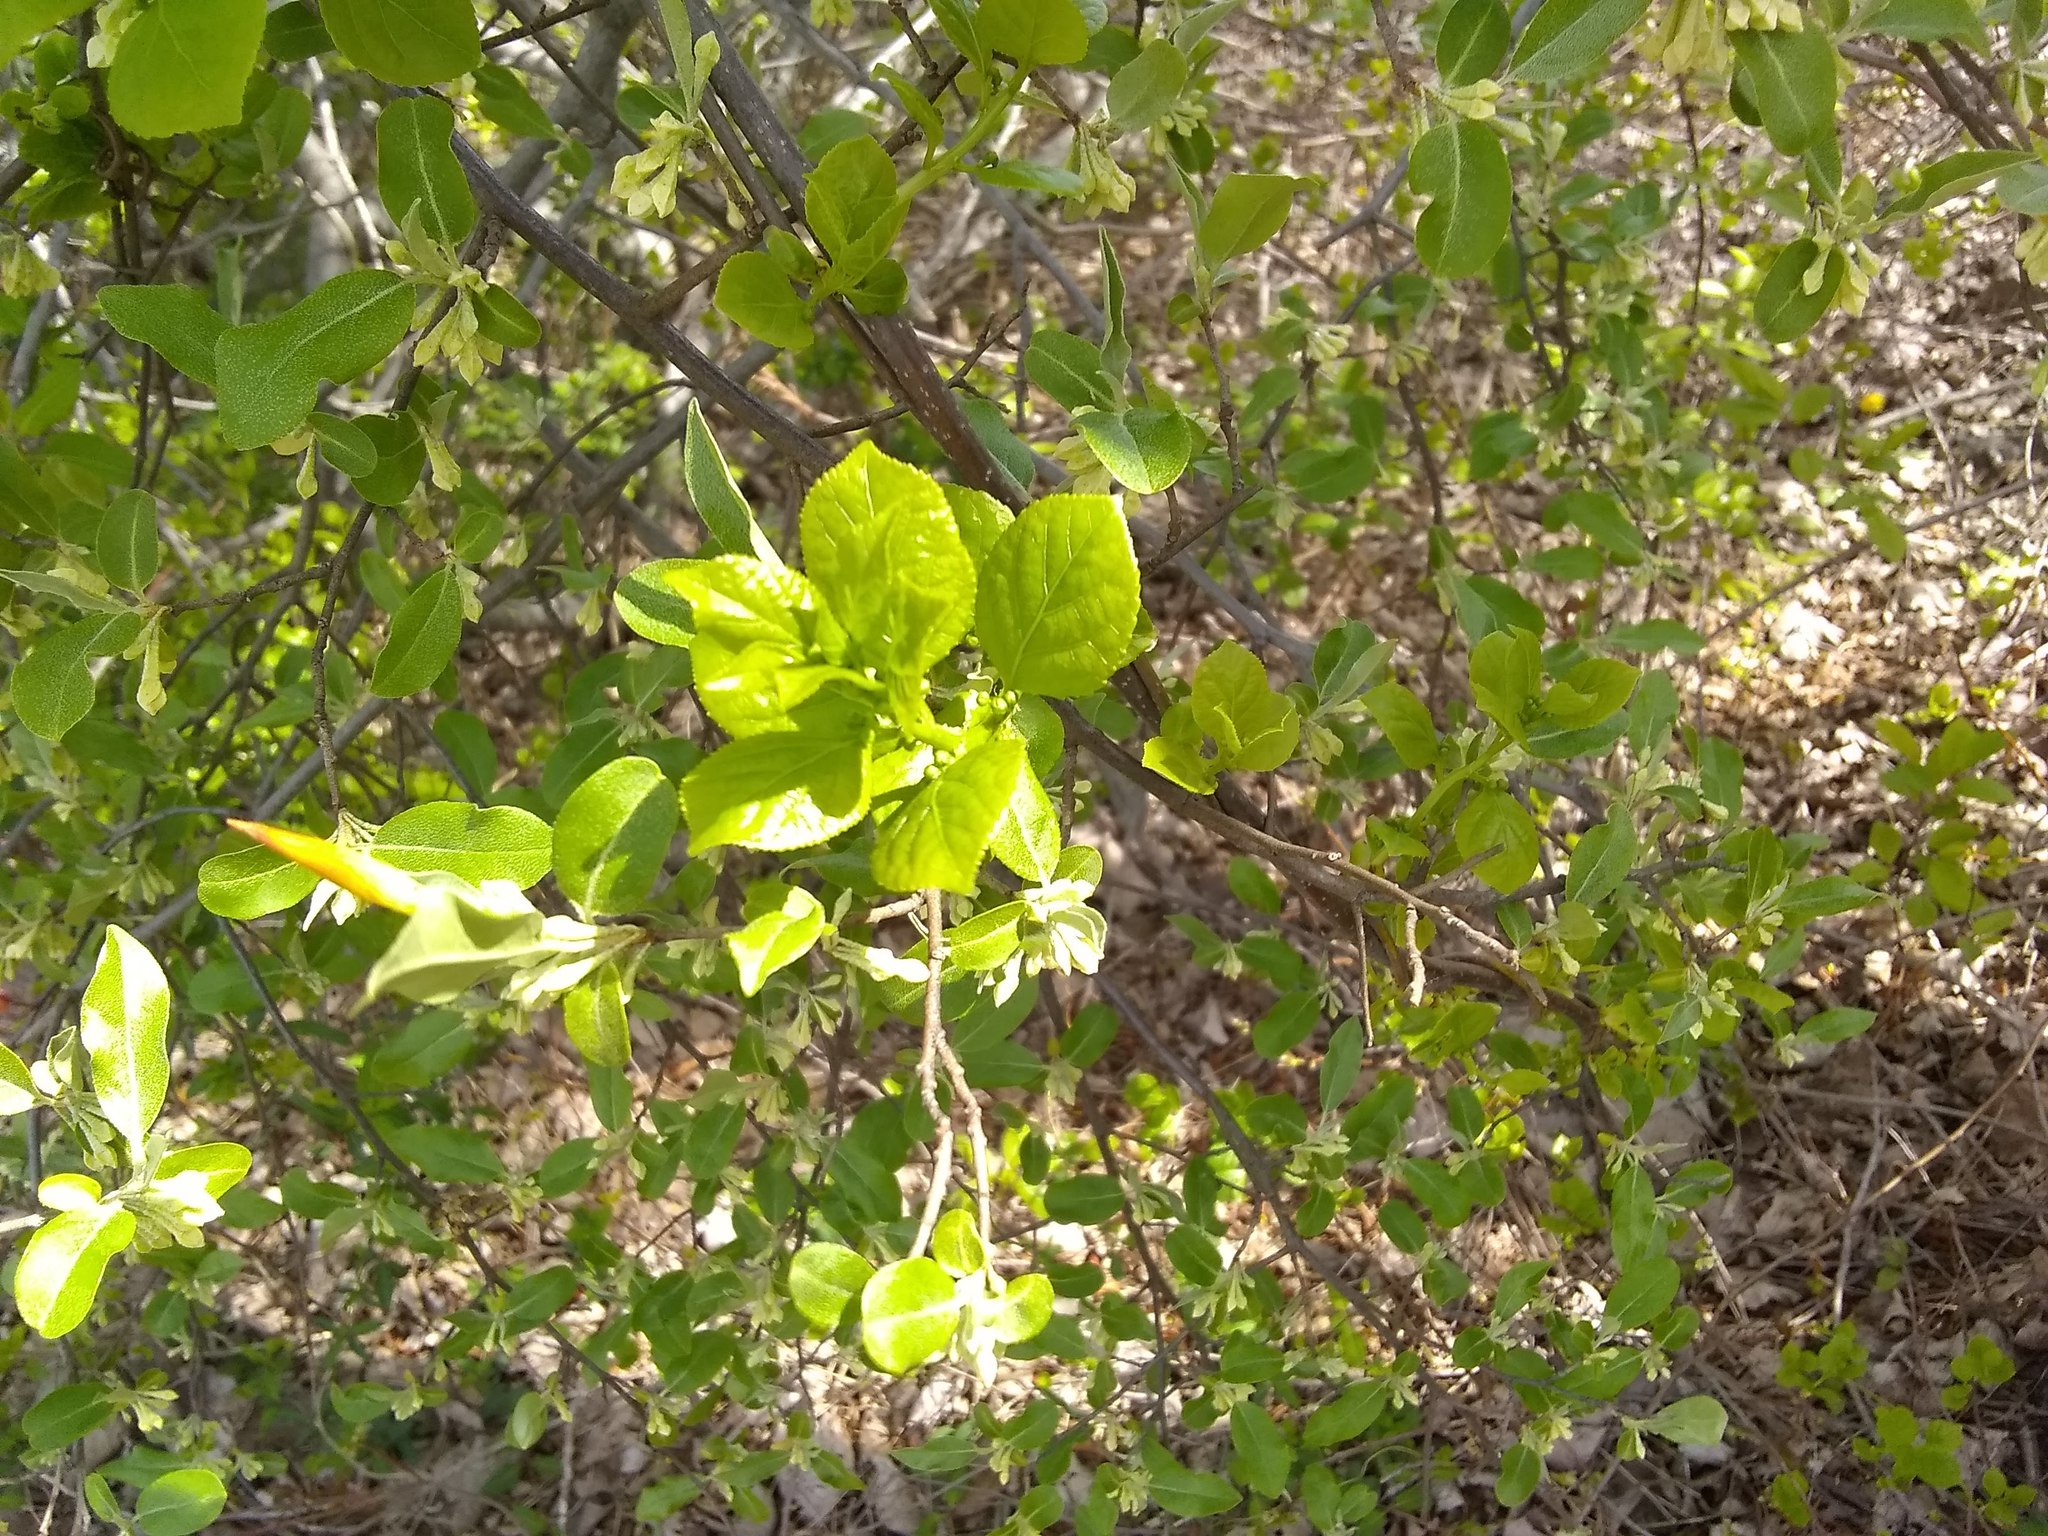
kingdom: Plantae
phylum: Tracheophyta
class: Magnoliopsida
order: Celastrales
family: Celastraceae
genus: Celastrus
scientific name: Celastrus orbiculatus
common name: Oriental bittersweet
